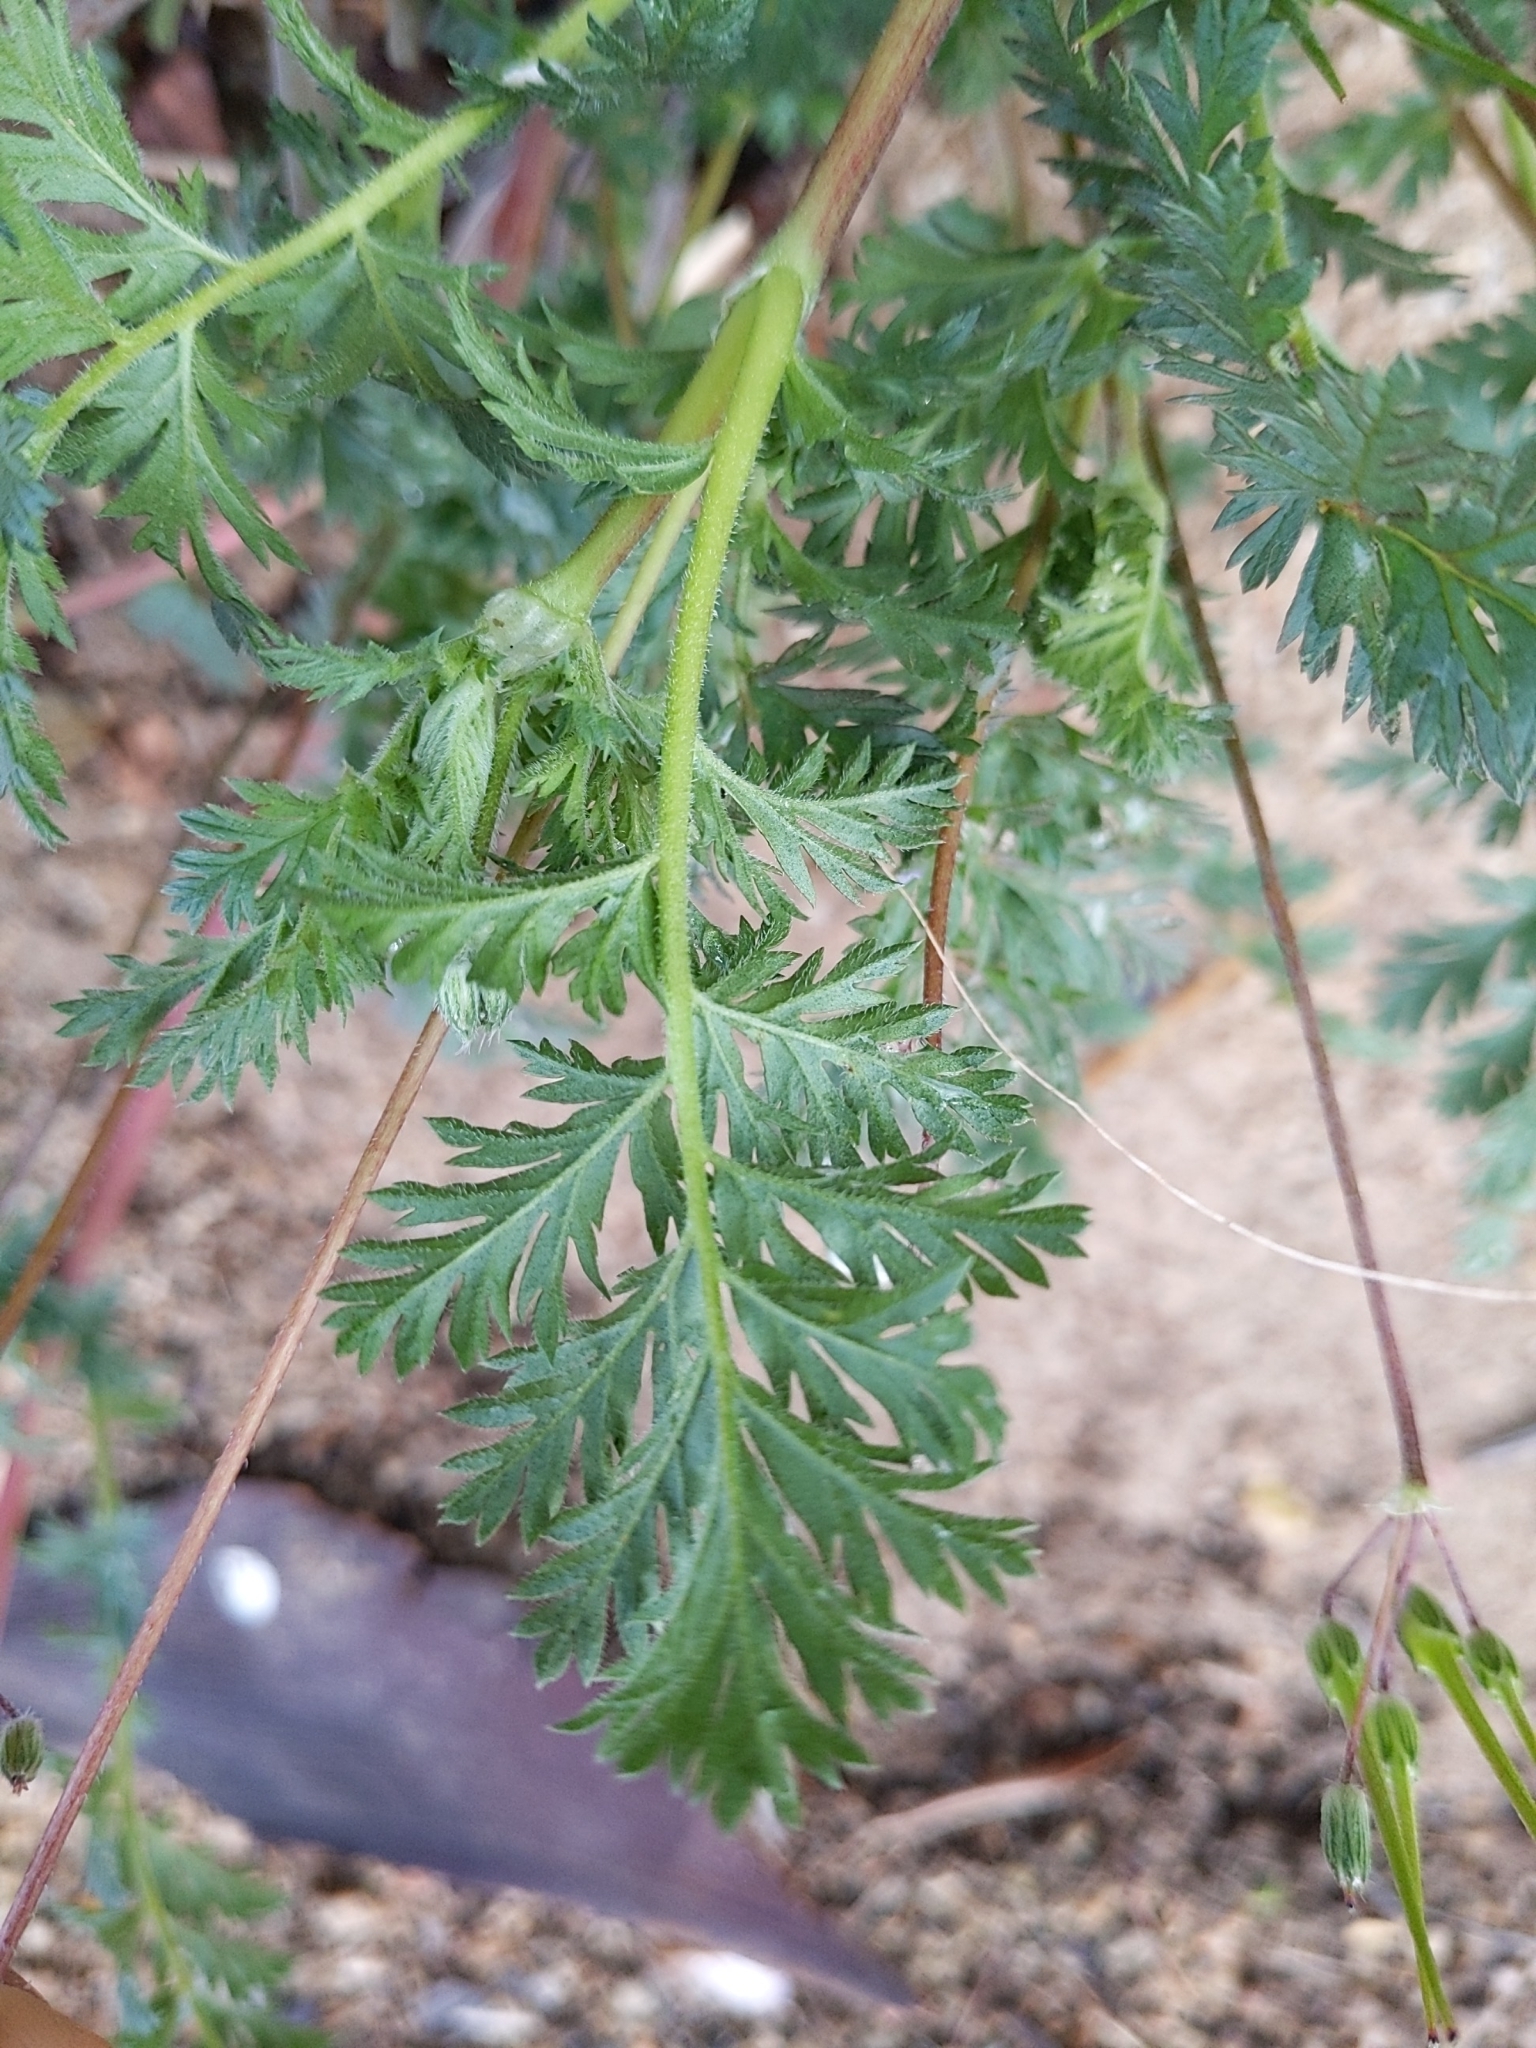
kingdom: Plantae
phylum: Tracheophyta
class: Magnoliopsida
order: Geraniales
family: Geraniaceae
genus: Erodium
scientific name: Erodium cicutarium
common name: Common stork's-bill
